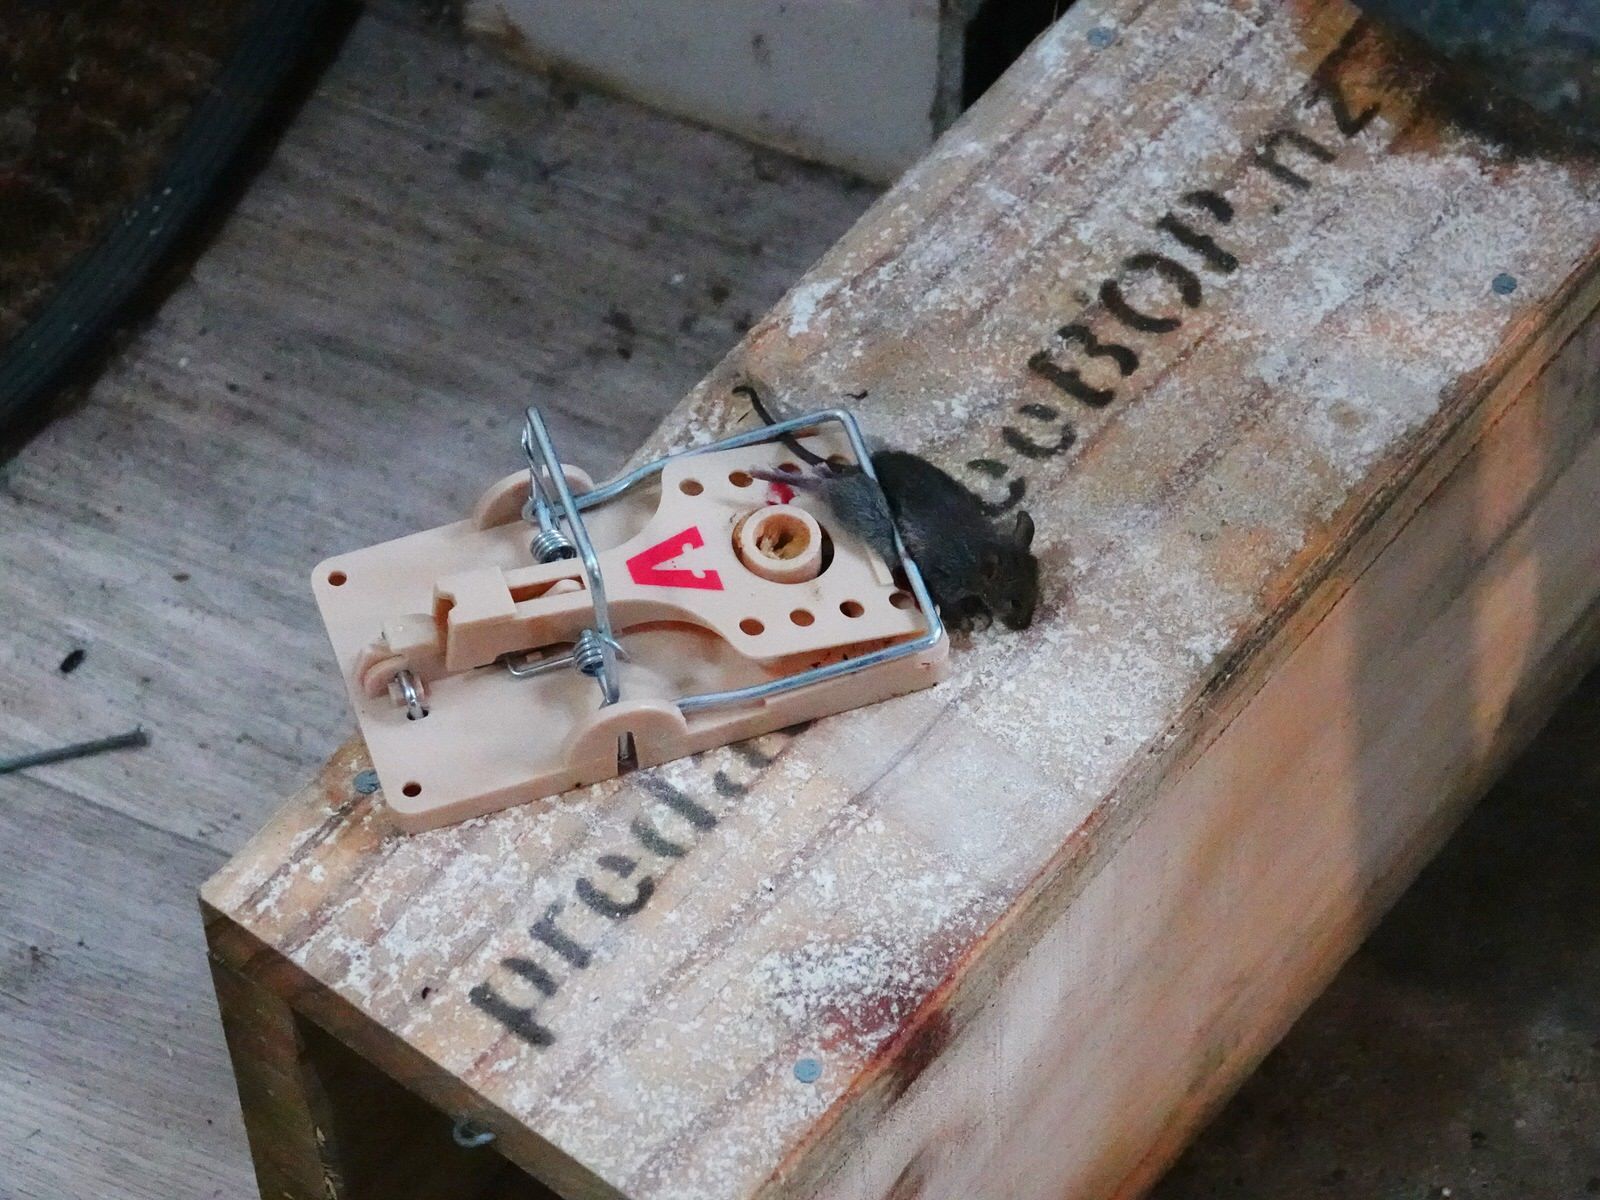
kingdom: Animalia
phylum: Chordata
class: Mammalia
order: Rodentia
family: Muridae
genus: Mus
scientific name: Mus musculus
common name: House mouse
